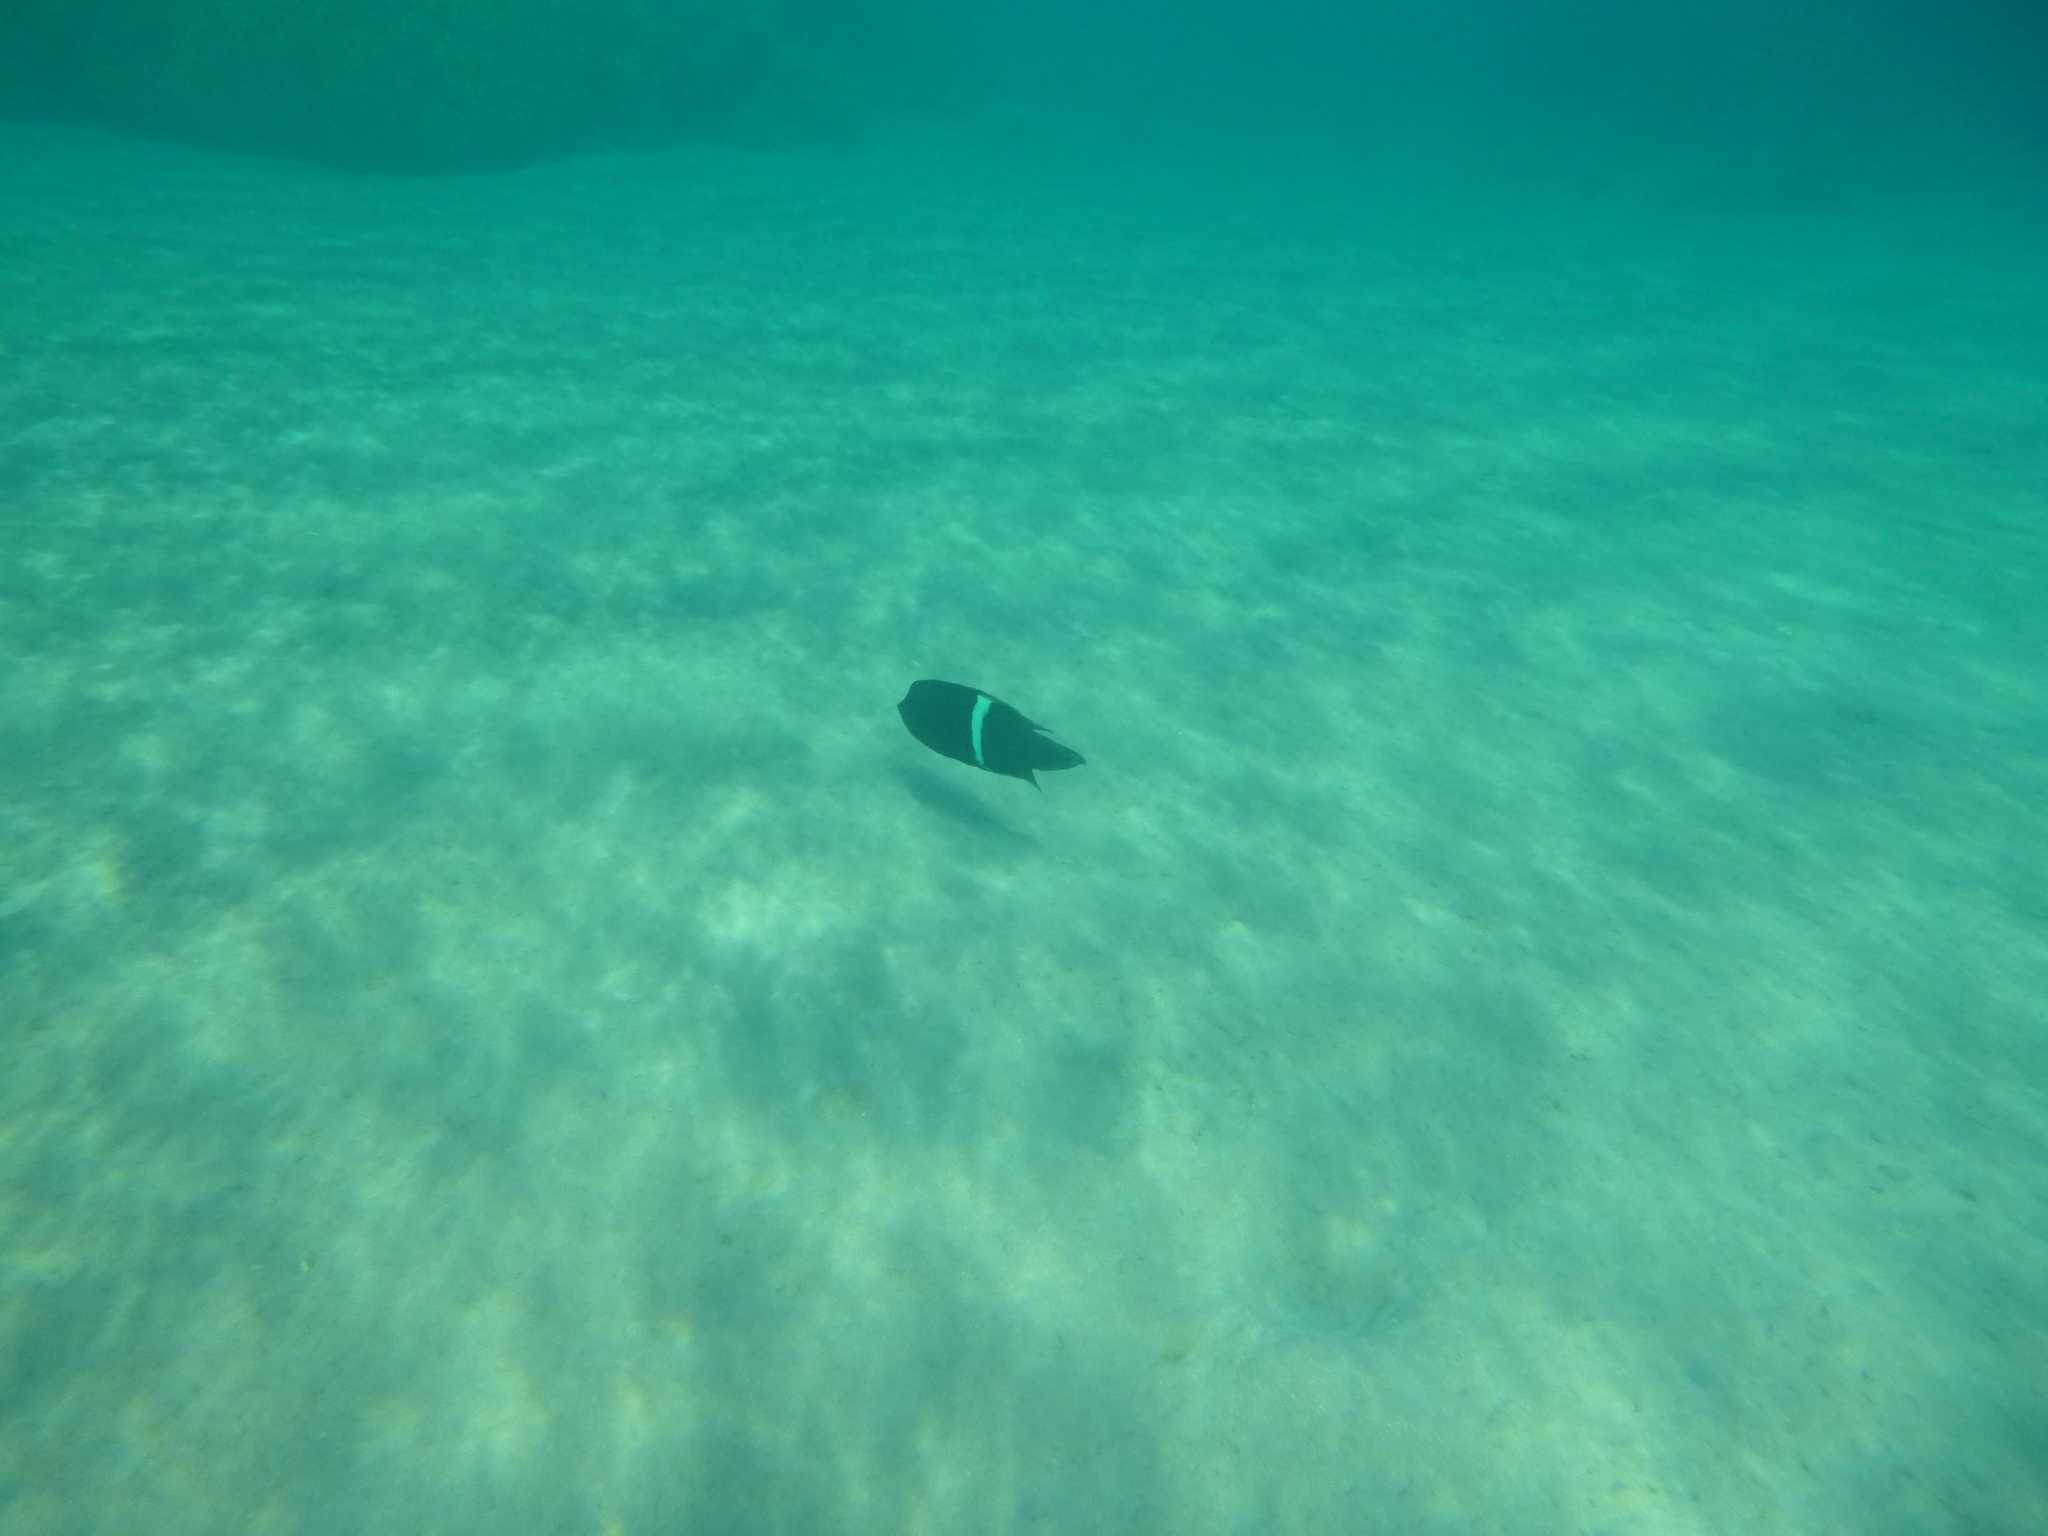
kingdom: Animalia
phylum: Chordata
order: Perciformes
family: Labridae
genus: Coris
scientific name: Coris aygula
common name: Clown coris
